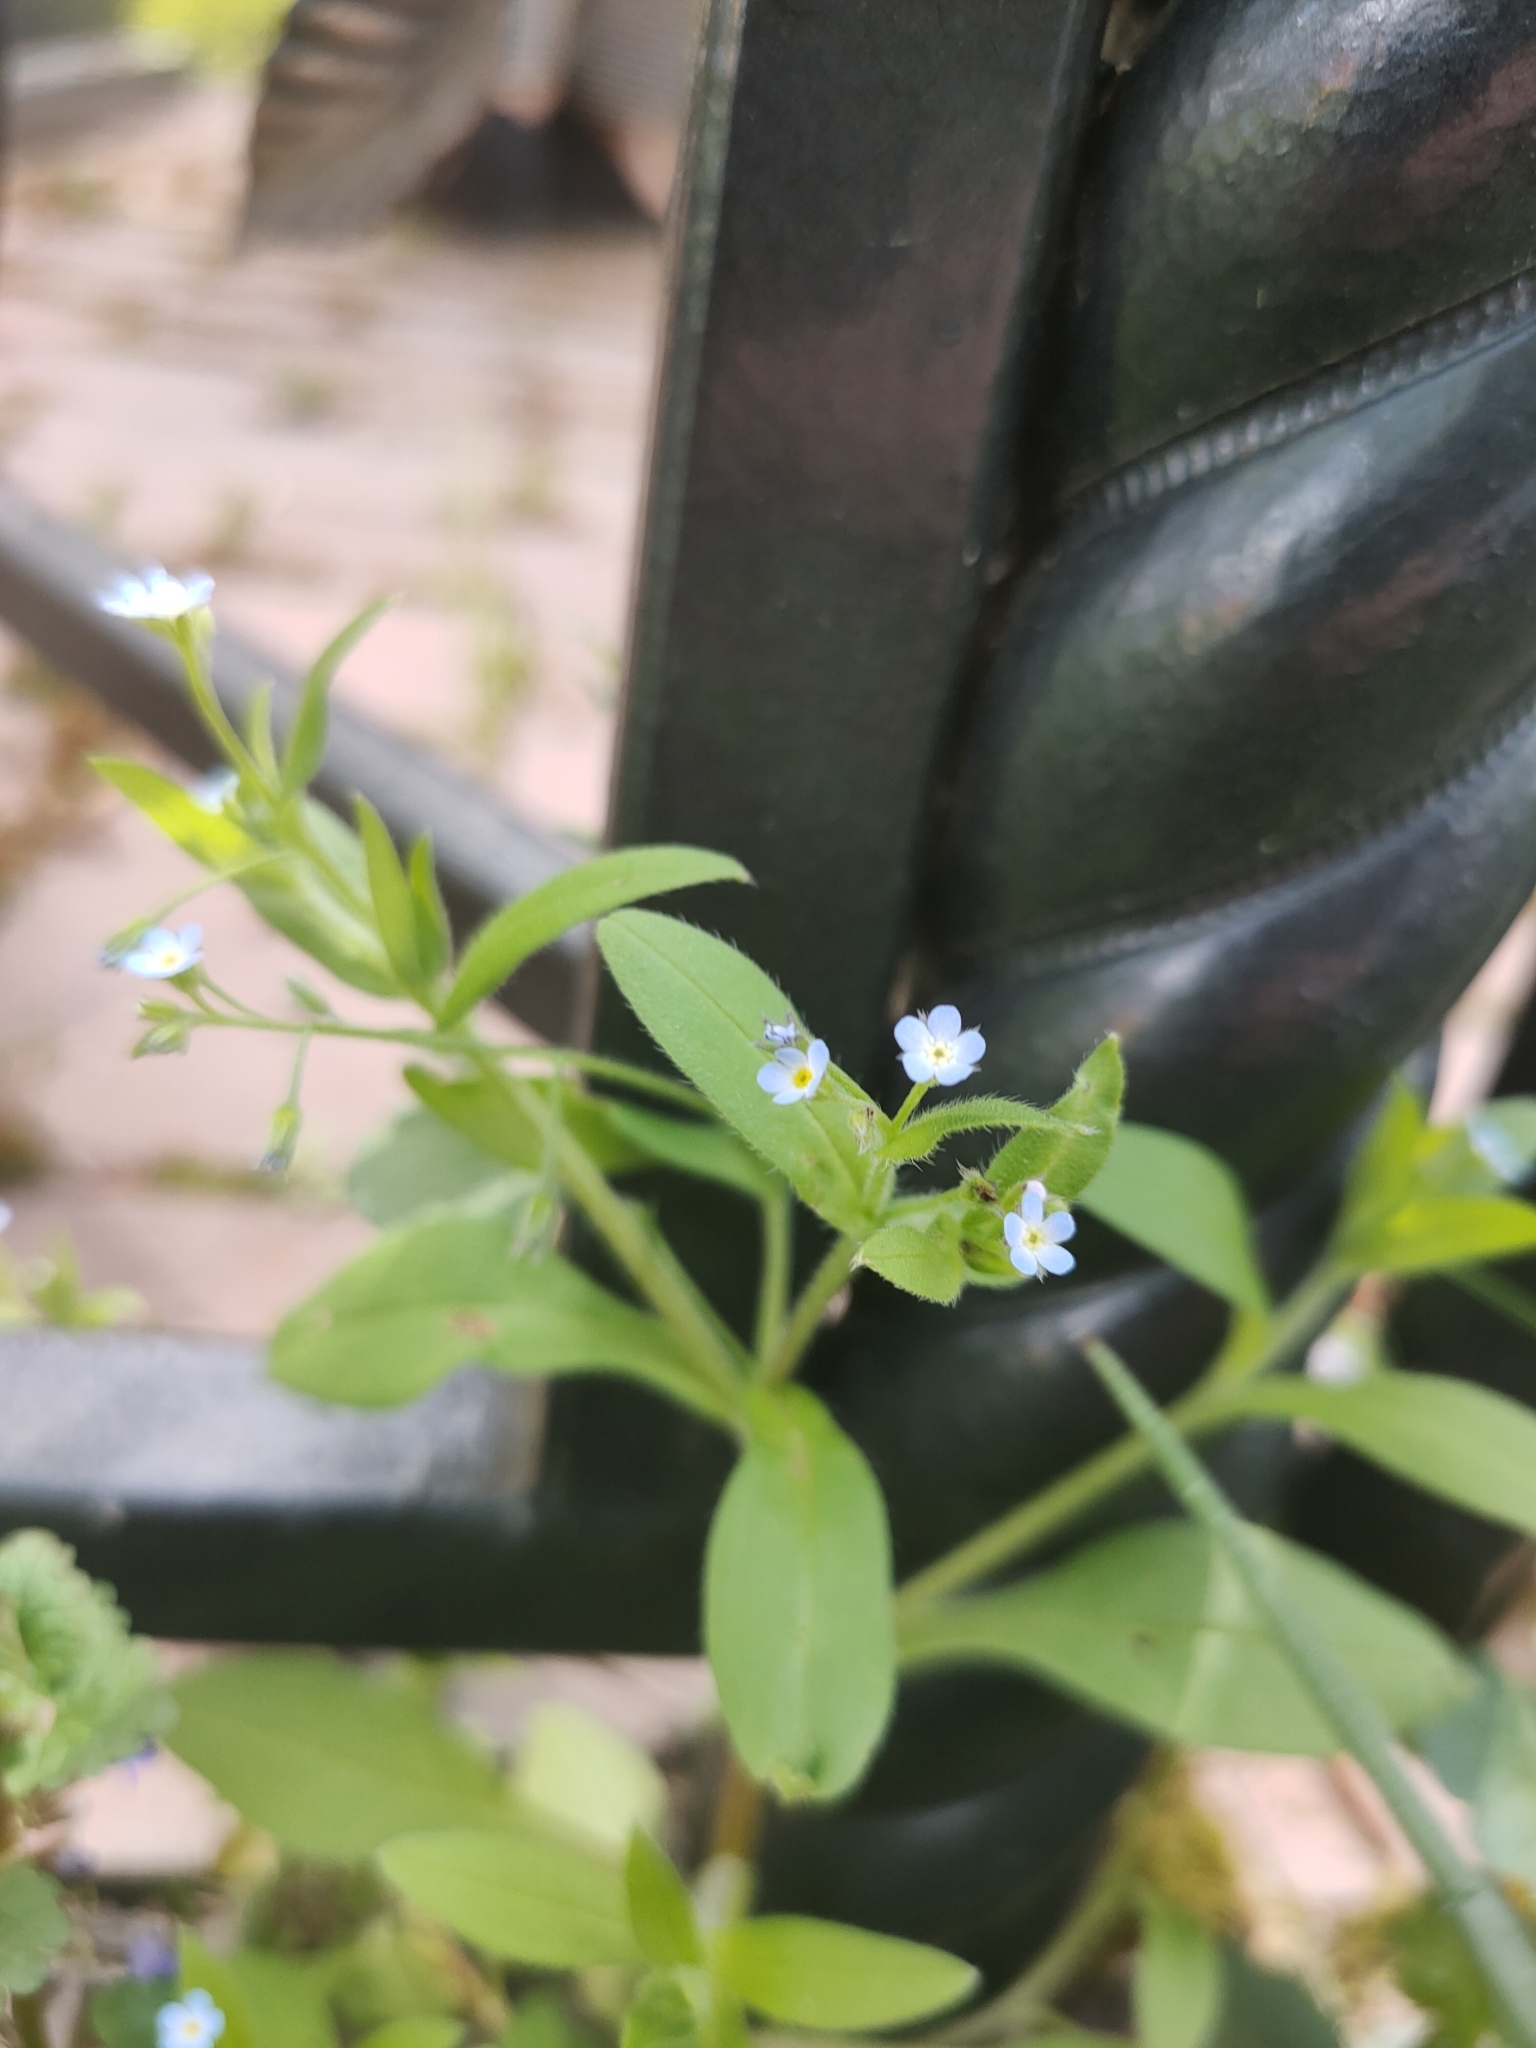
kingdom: Plantae
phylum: Tracheophyta
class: Magnoliopsida
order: Boraginales
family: Boraginaceae
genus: Myosotis
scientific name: Myosotis sparsiflora
